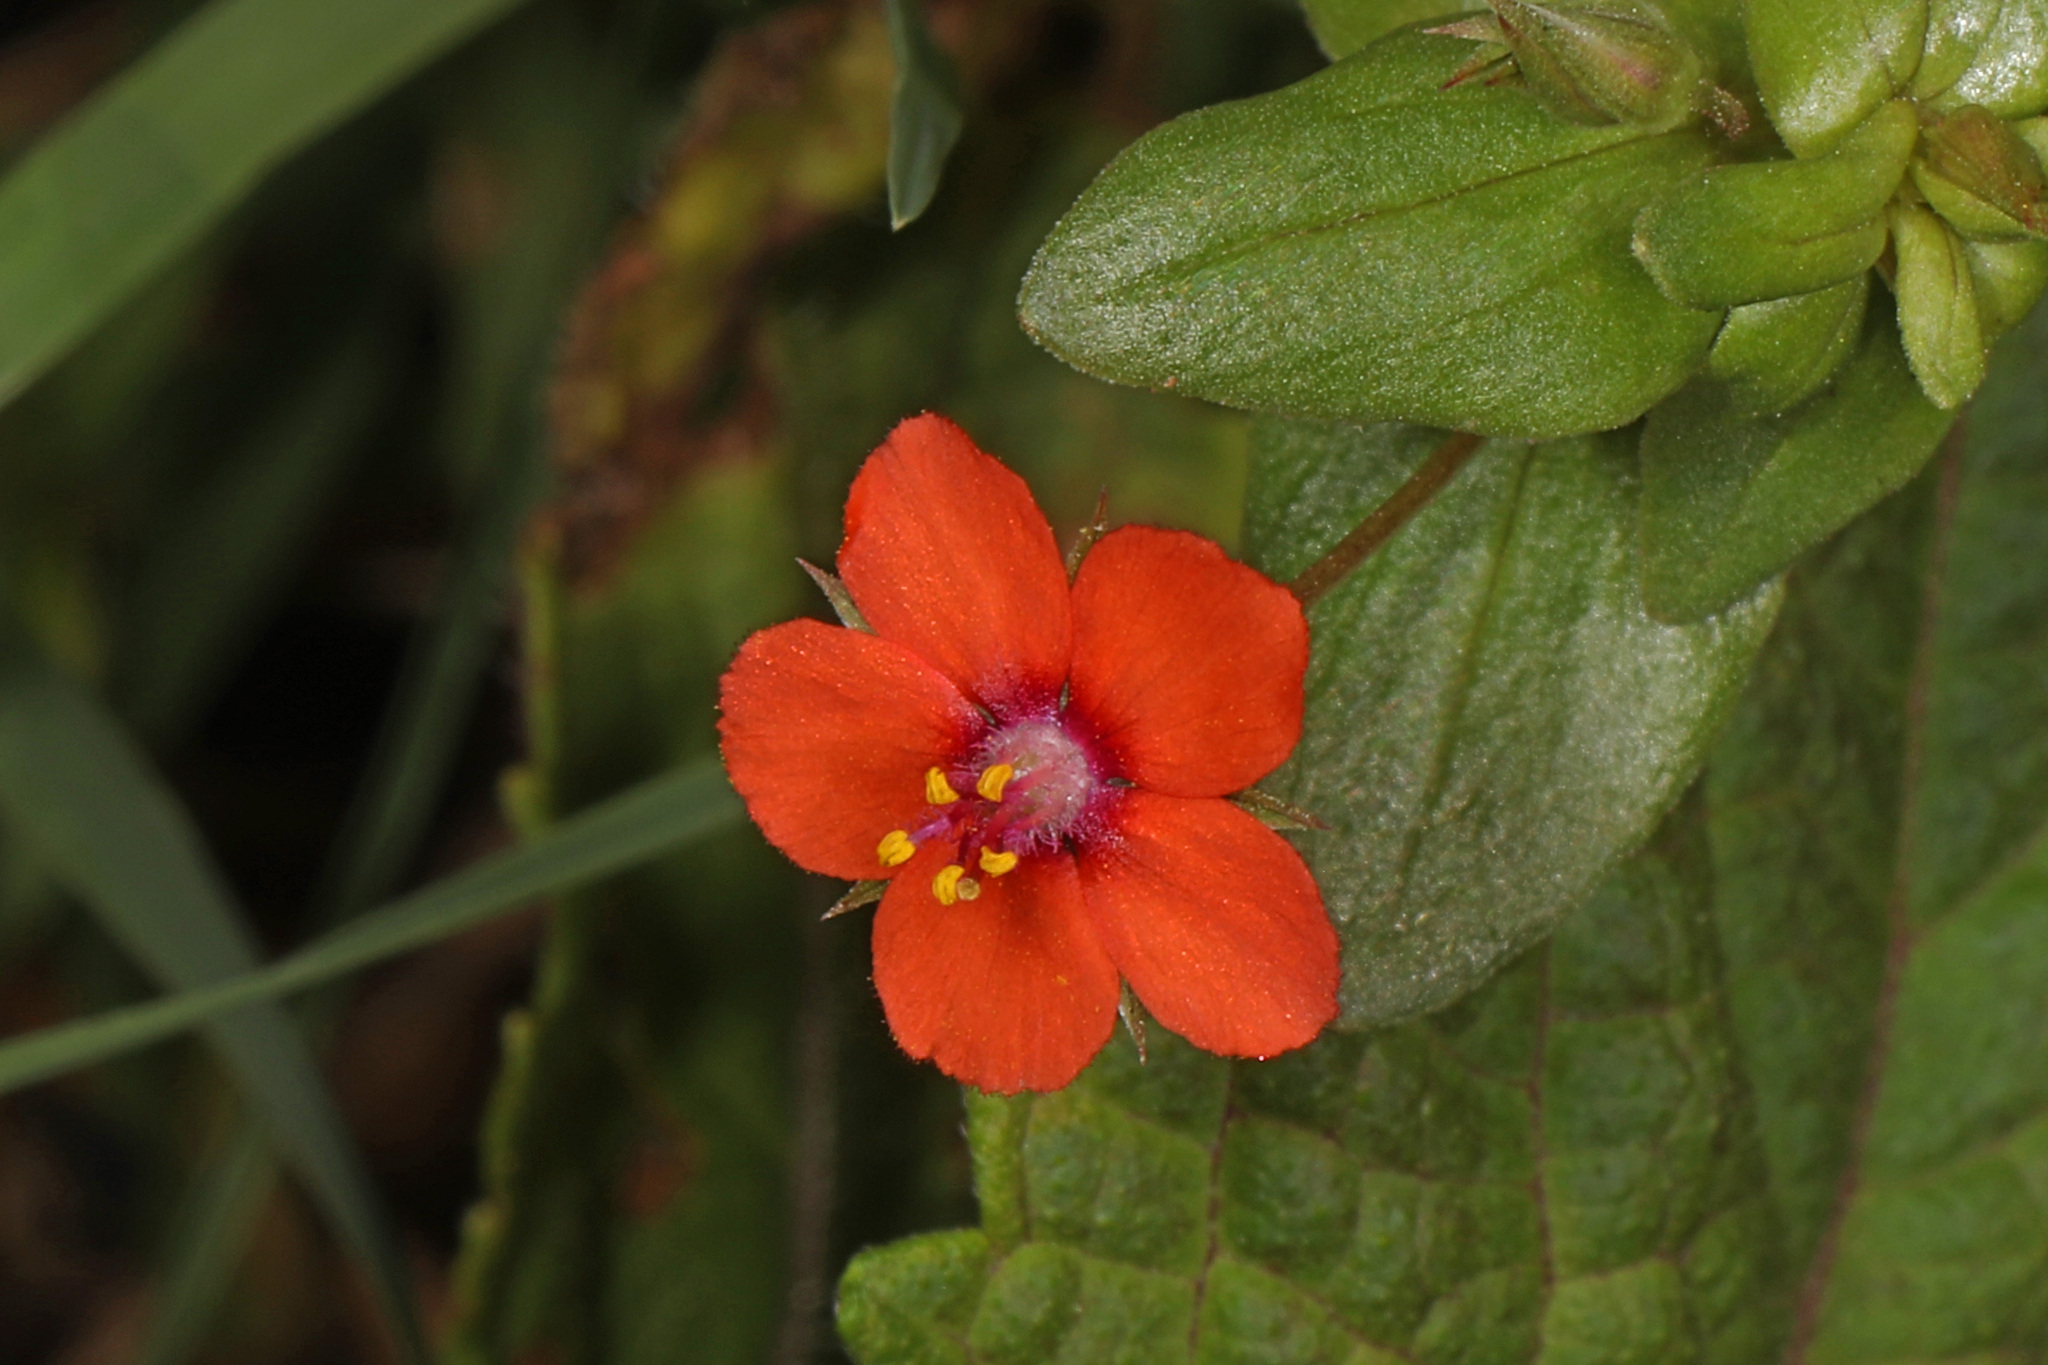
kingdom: Plantae
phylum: Tracheophyta
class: Magnoliopsida
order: Ericales
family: Primulaceae
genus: Lysimachia
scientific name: Lysimachia arvensis
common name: Scarlet pimpernel
